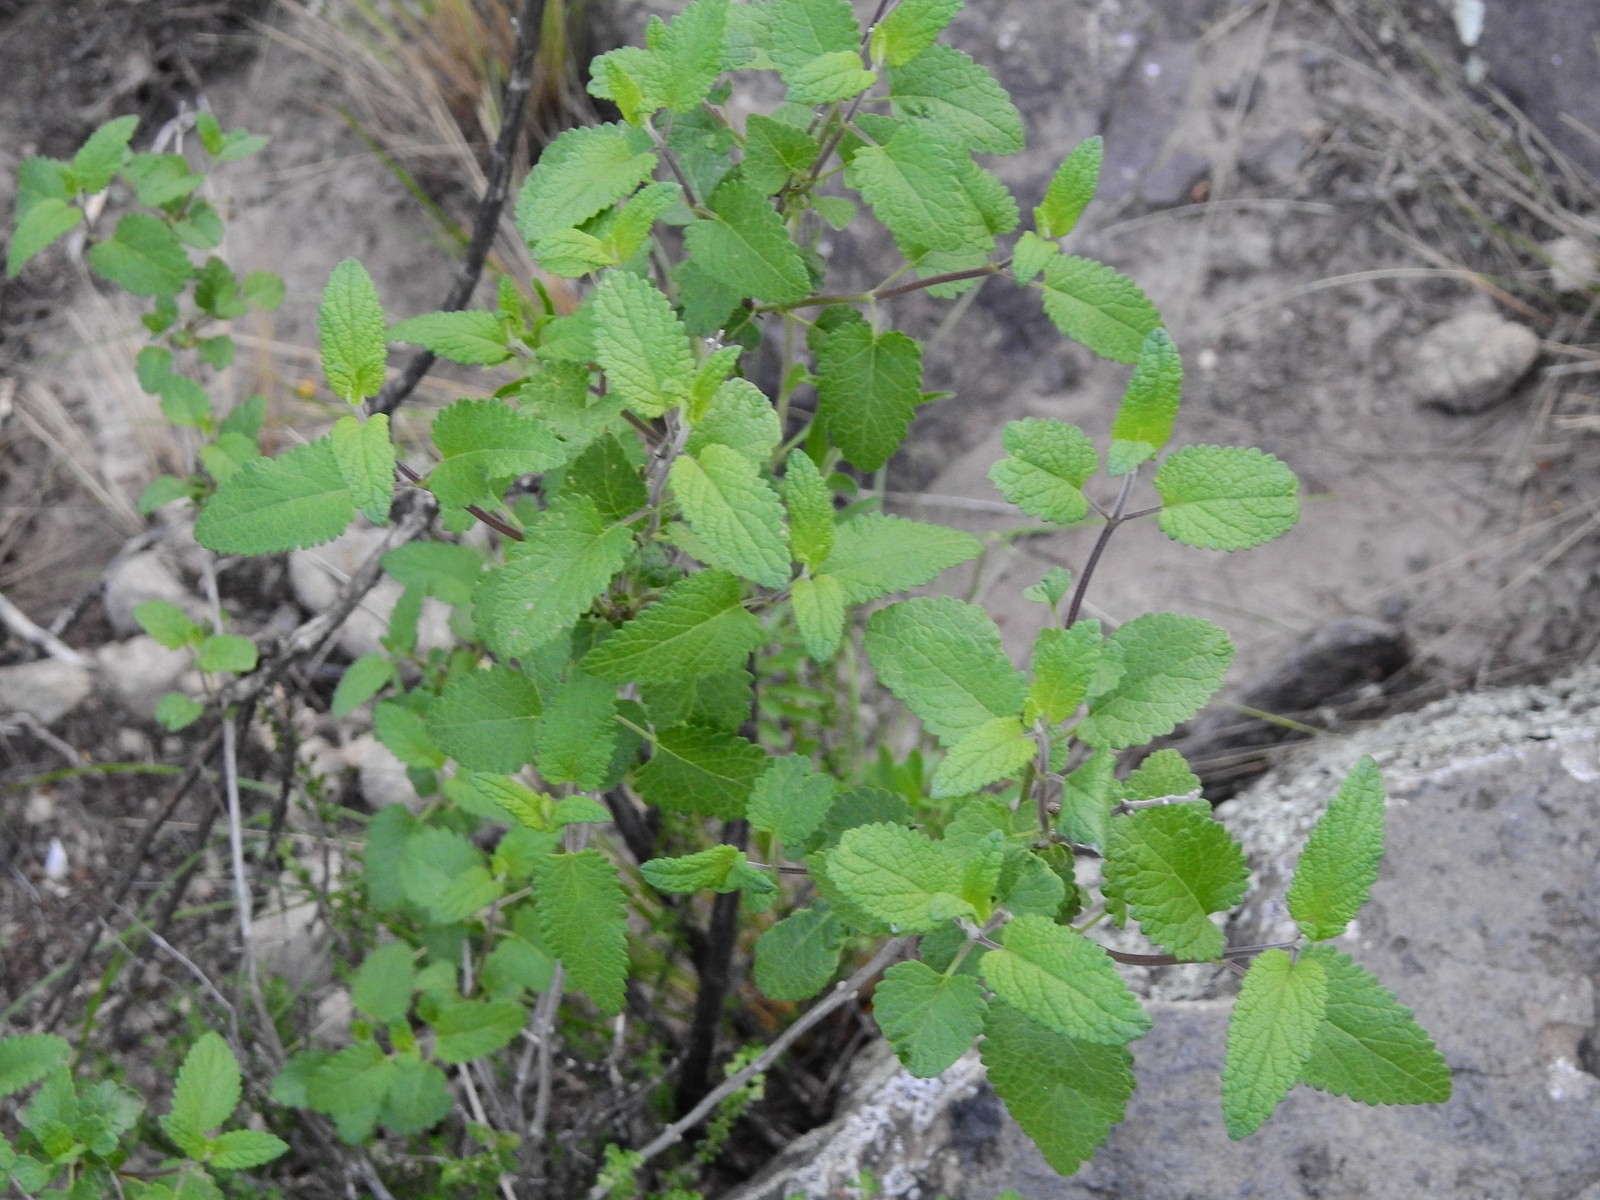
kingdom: Plantae
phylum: Tracheophyta
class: Magnoliopsida
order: Lamiales
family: Lamiaceae
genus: Salvia
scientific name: Salvia cuspidata
